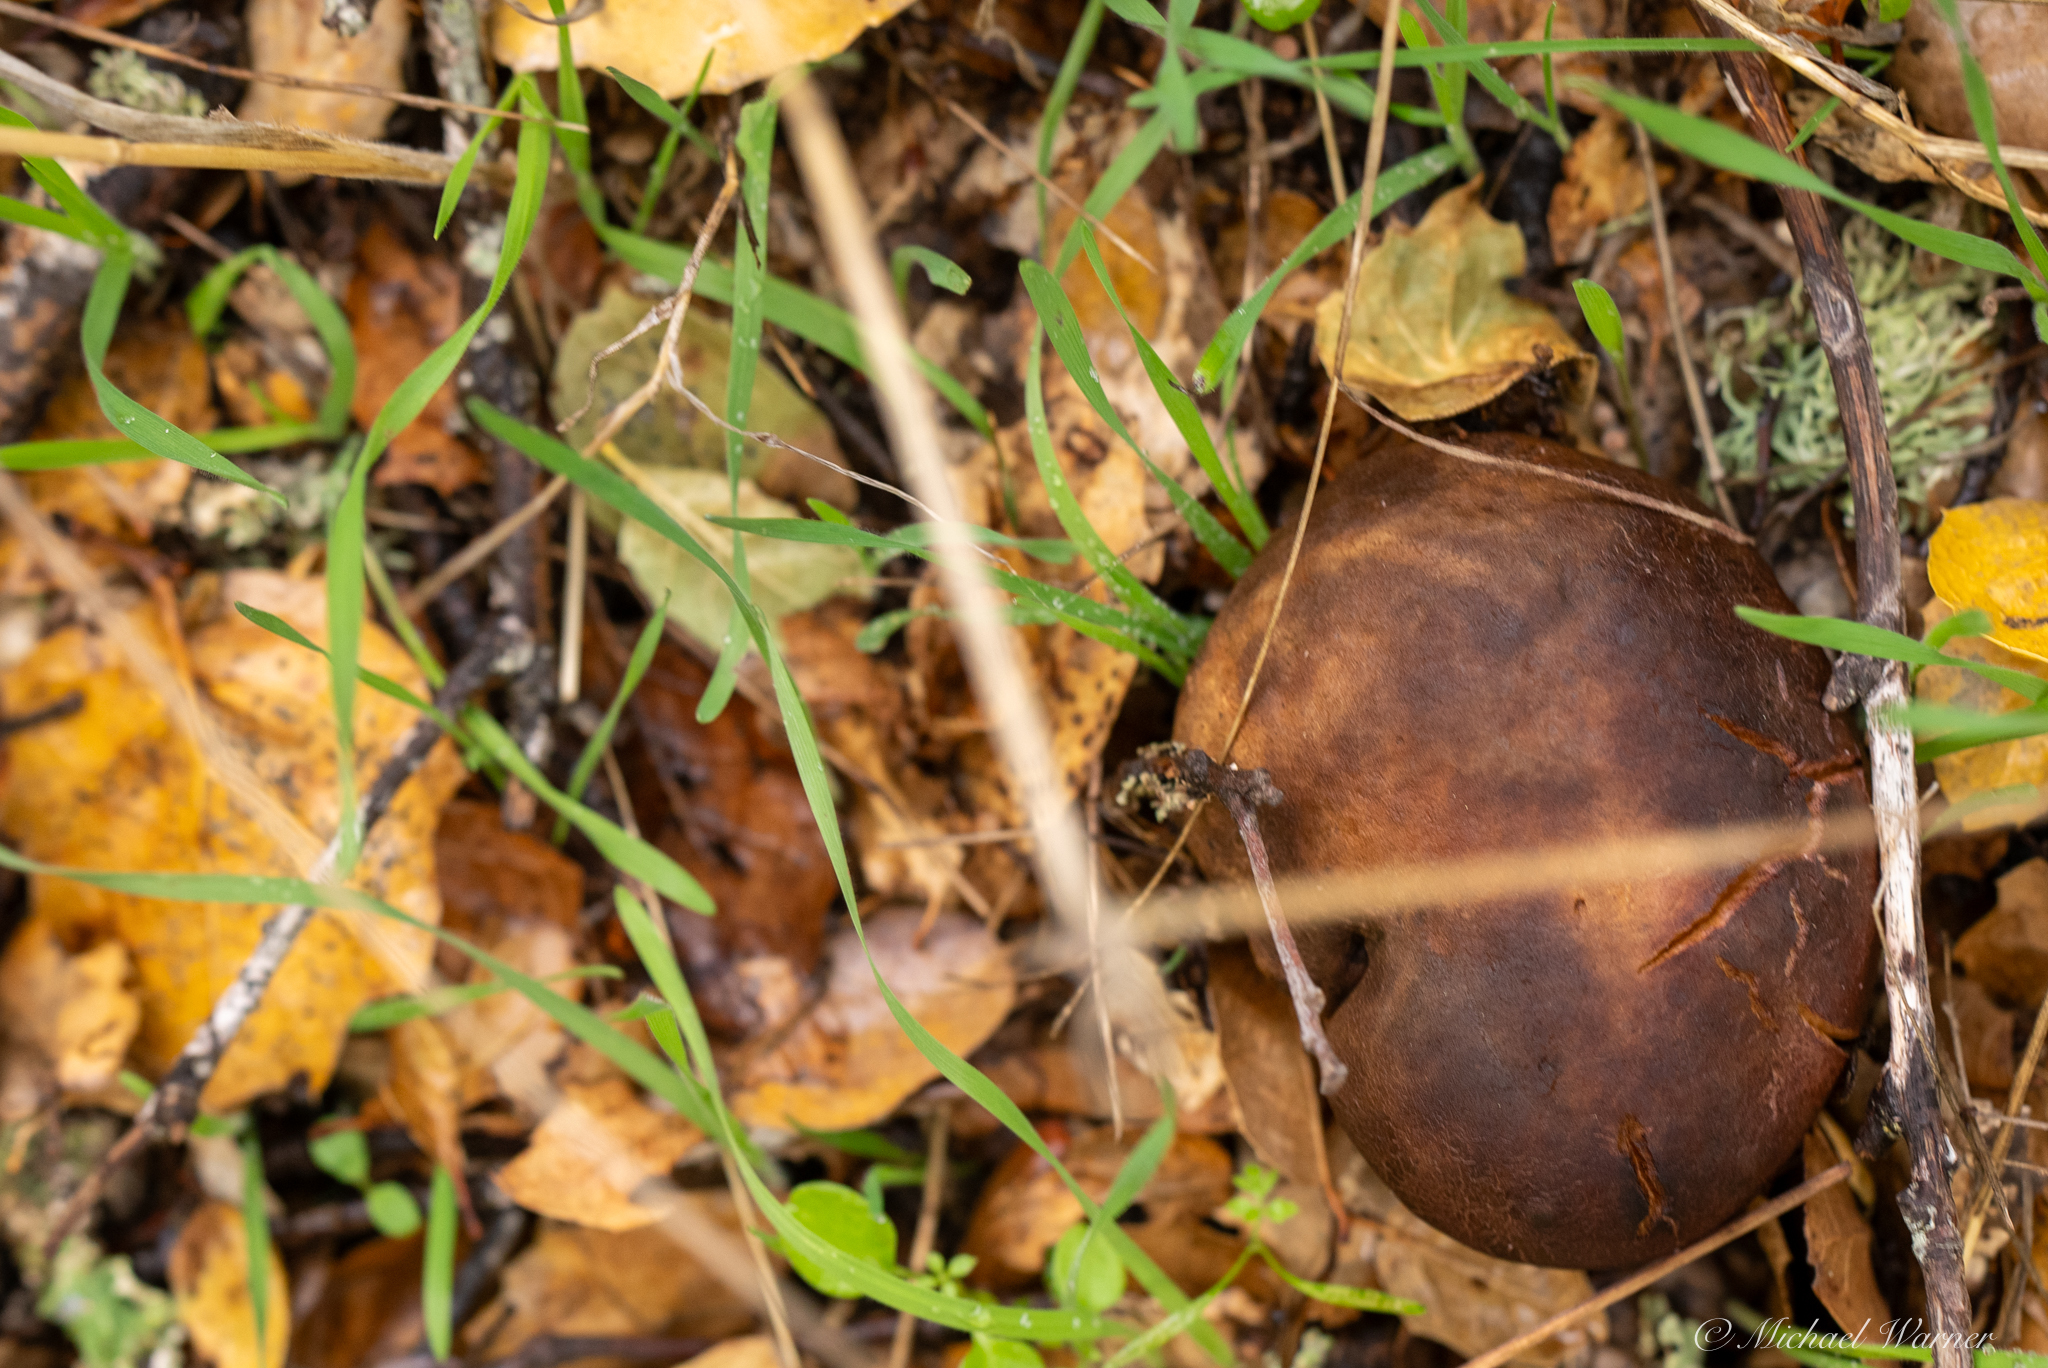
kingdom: Fungi
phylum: Basidiomycota
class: Agaricomycetes
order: Boletales
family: Boletaceae
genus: Xerocomus
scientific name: Xerocomus subtomentosus
